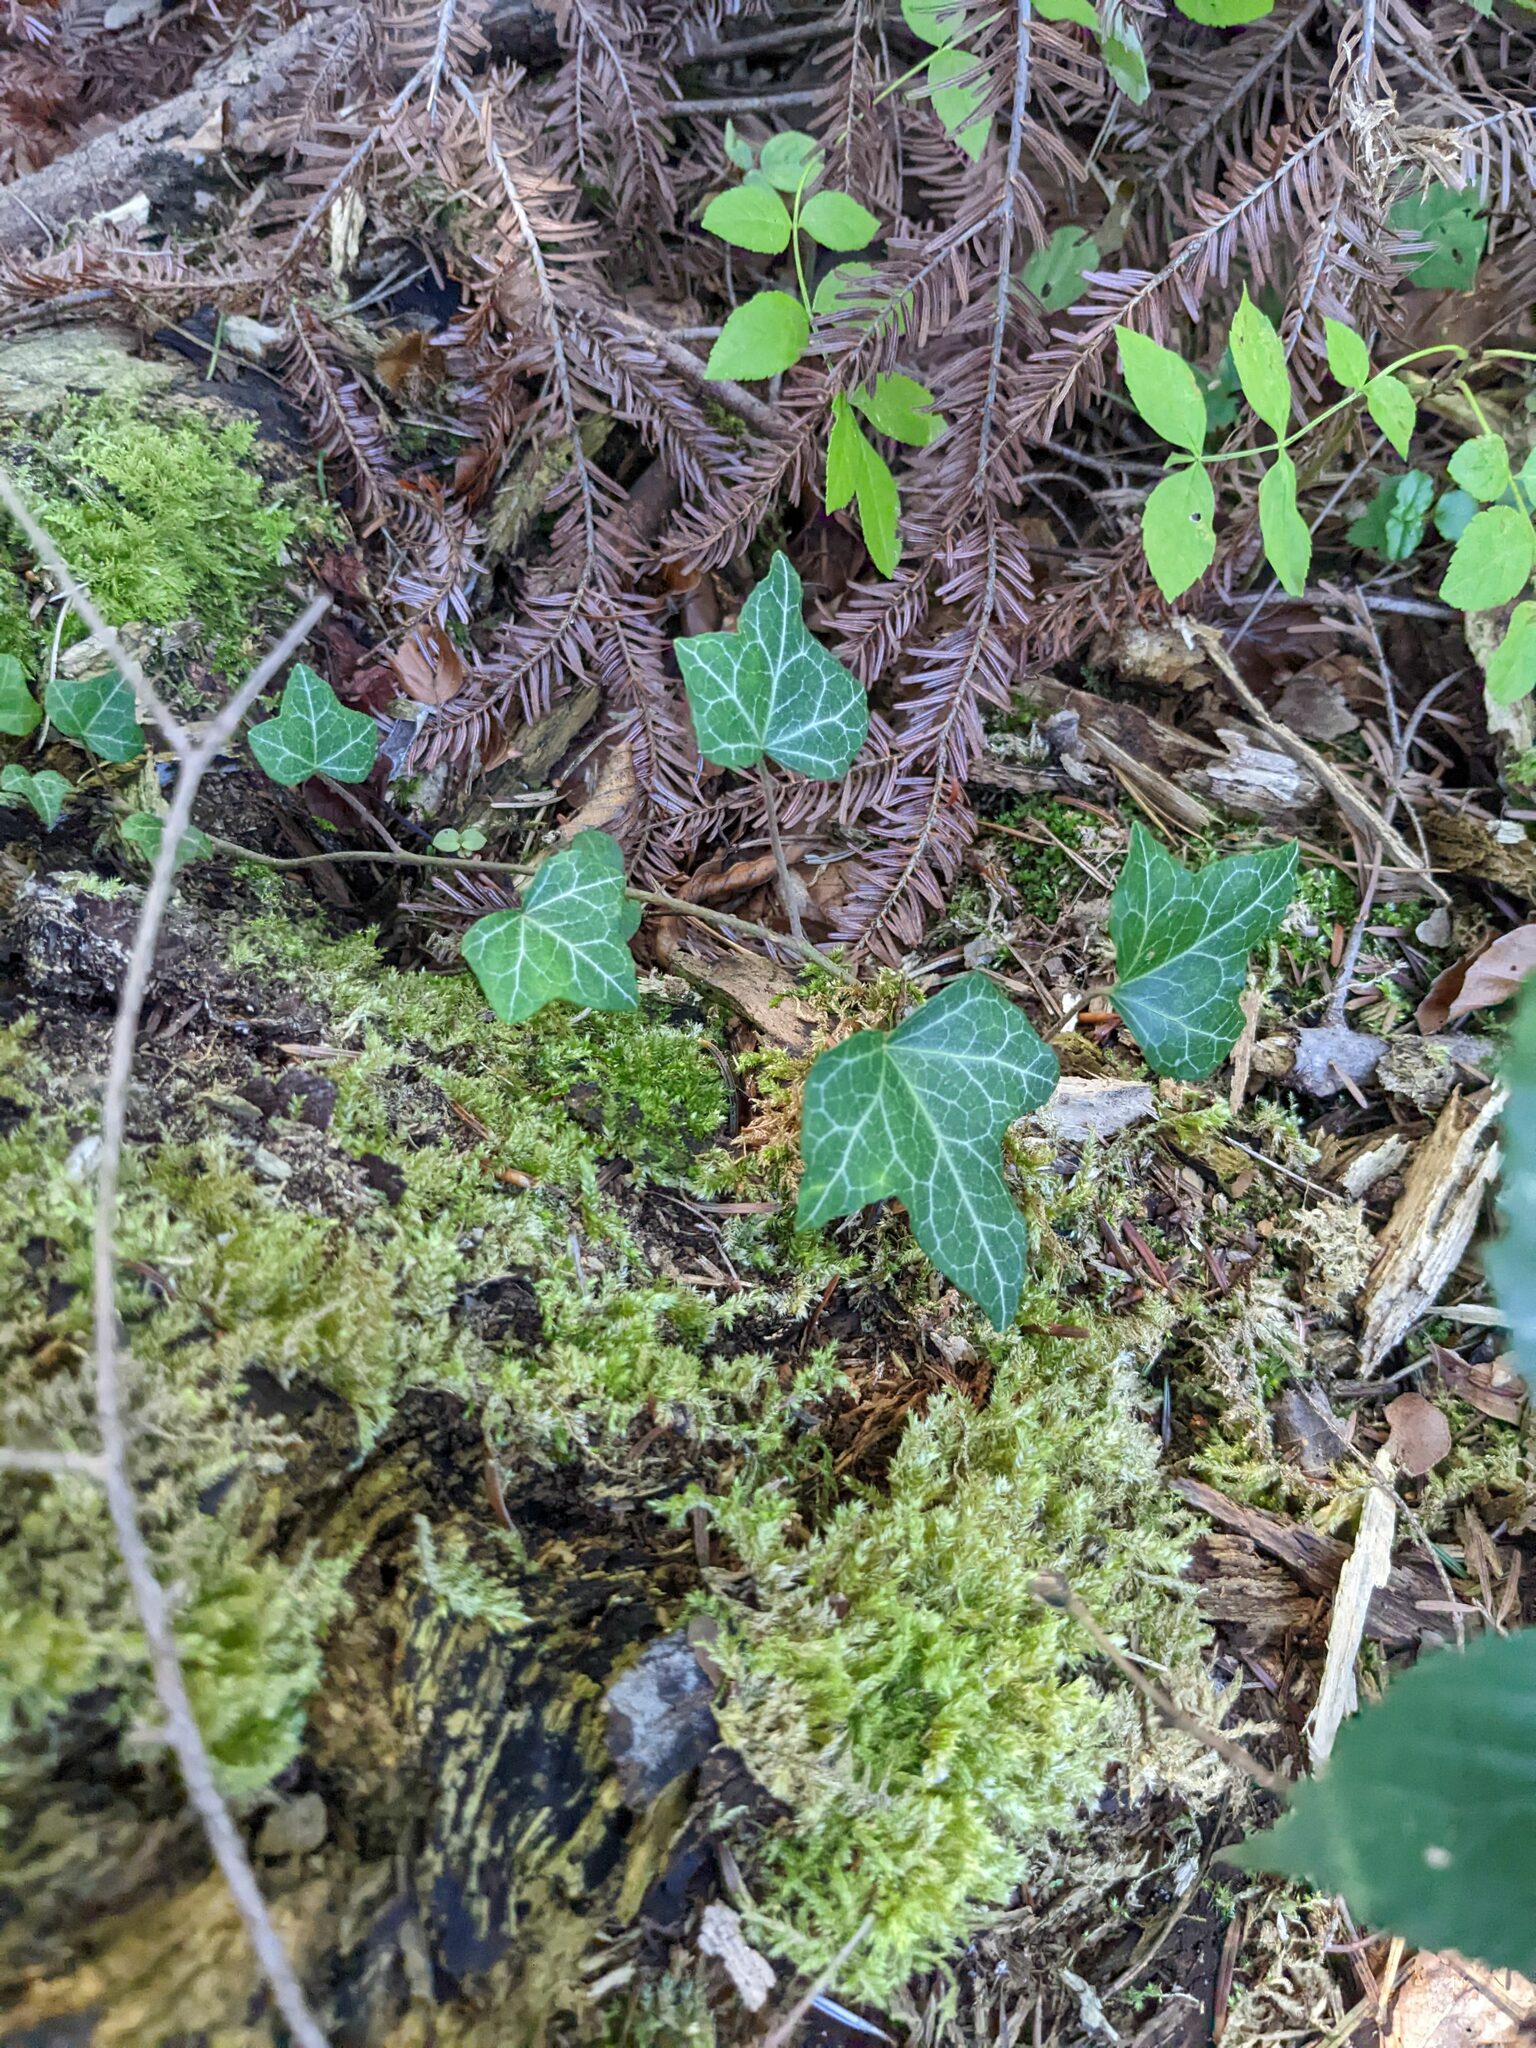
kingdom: Plantae
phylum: Tracheophyta
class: Magnoliopsida
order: Apiales
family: Araliaceae
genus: Hedera
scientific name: Hedera helix
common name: Ivy
